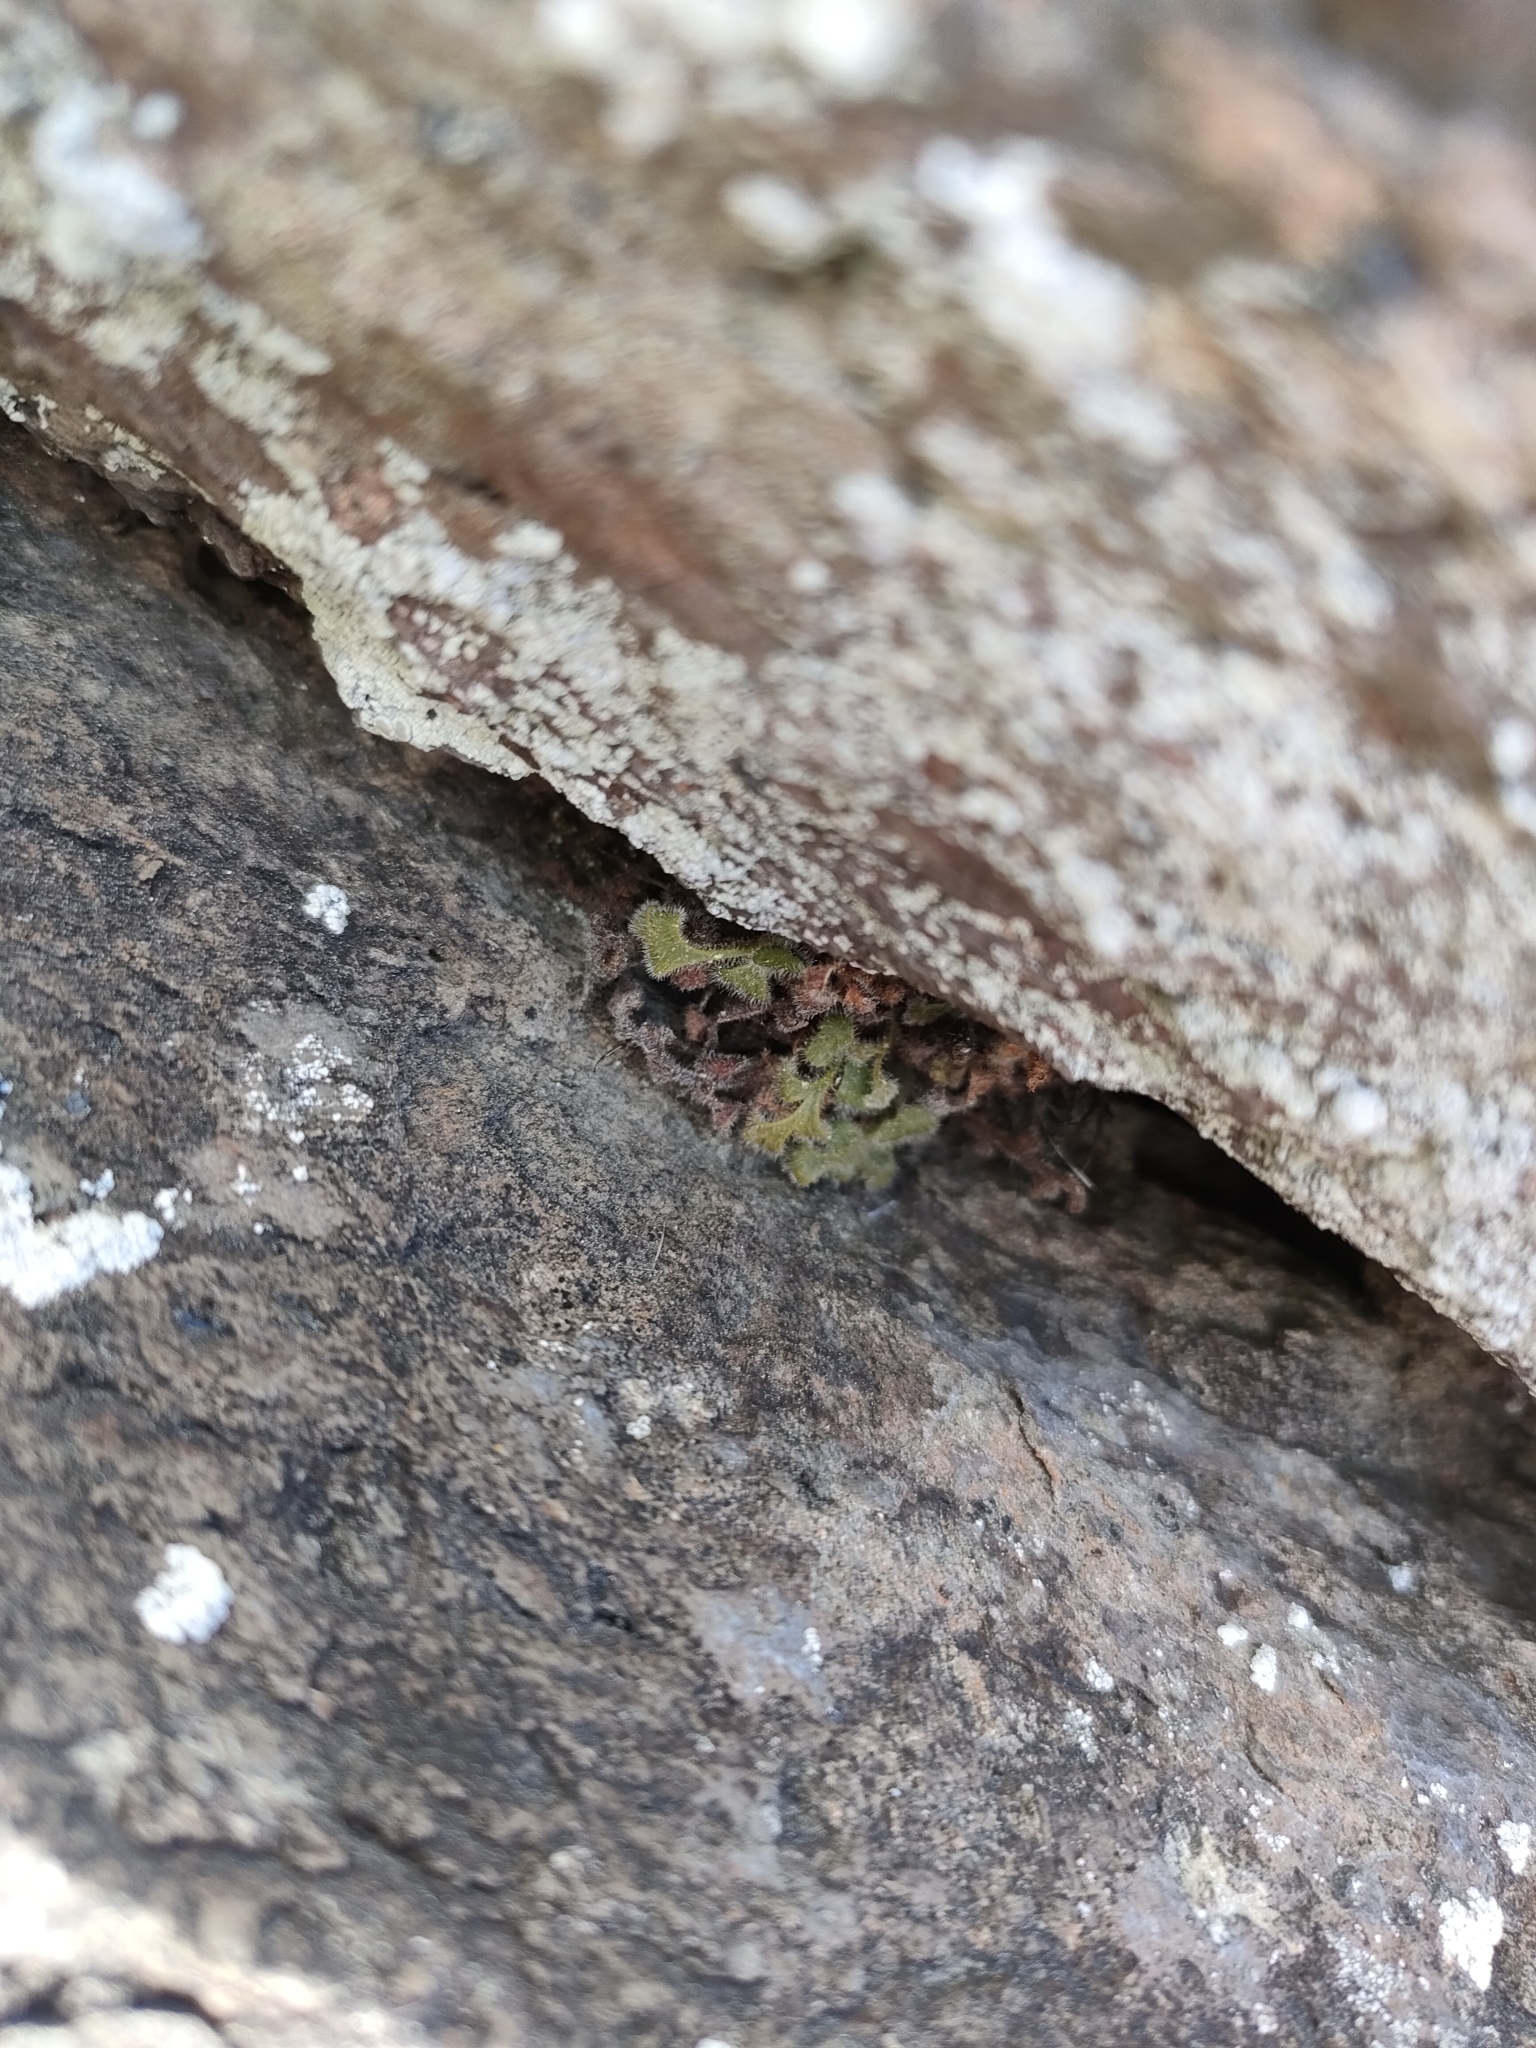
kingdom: Plantae
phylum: Tracheophyta
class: Polypodiopsida
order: Polypodiales
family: Aspleniaceae
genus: Asplenium
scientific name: Asplenium subglandulosum
